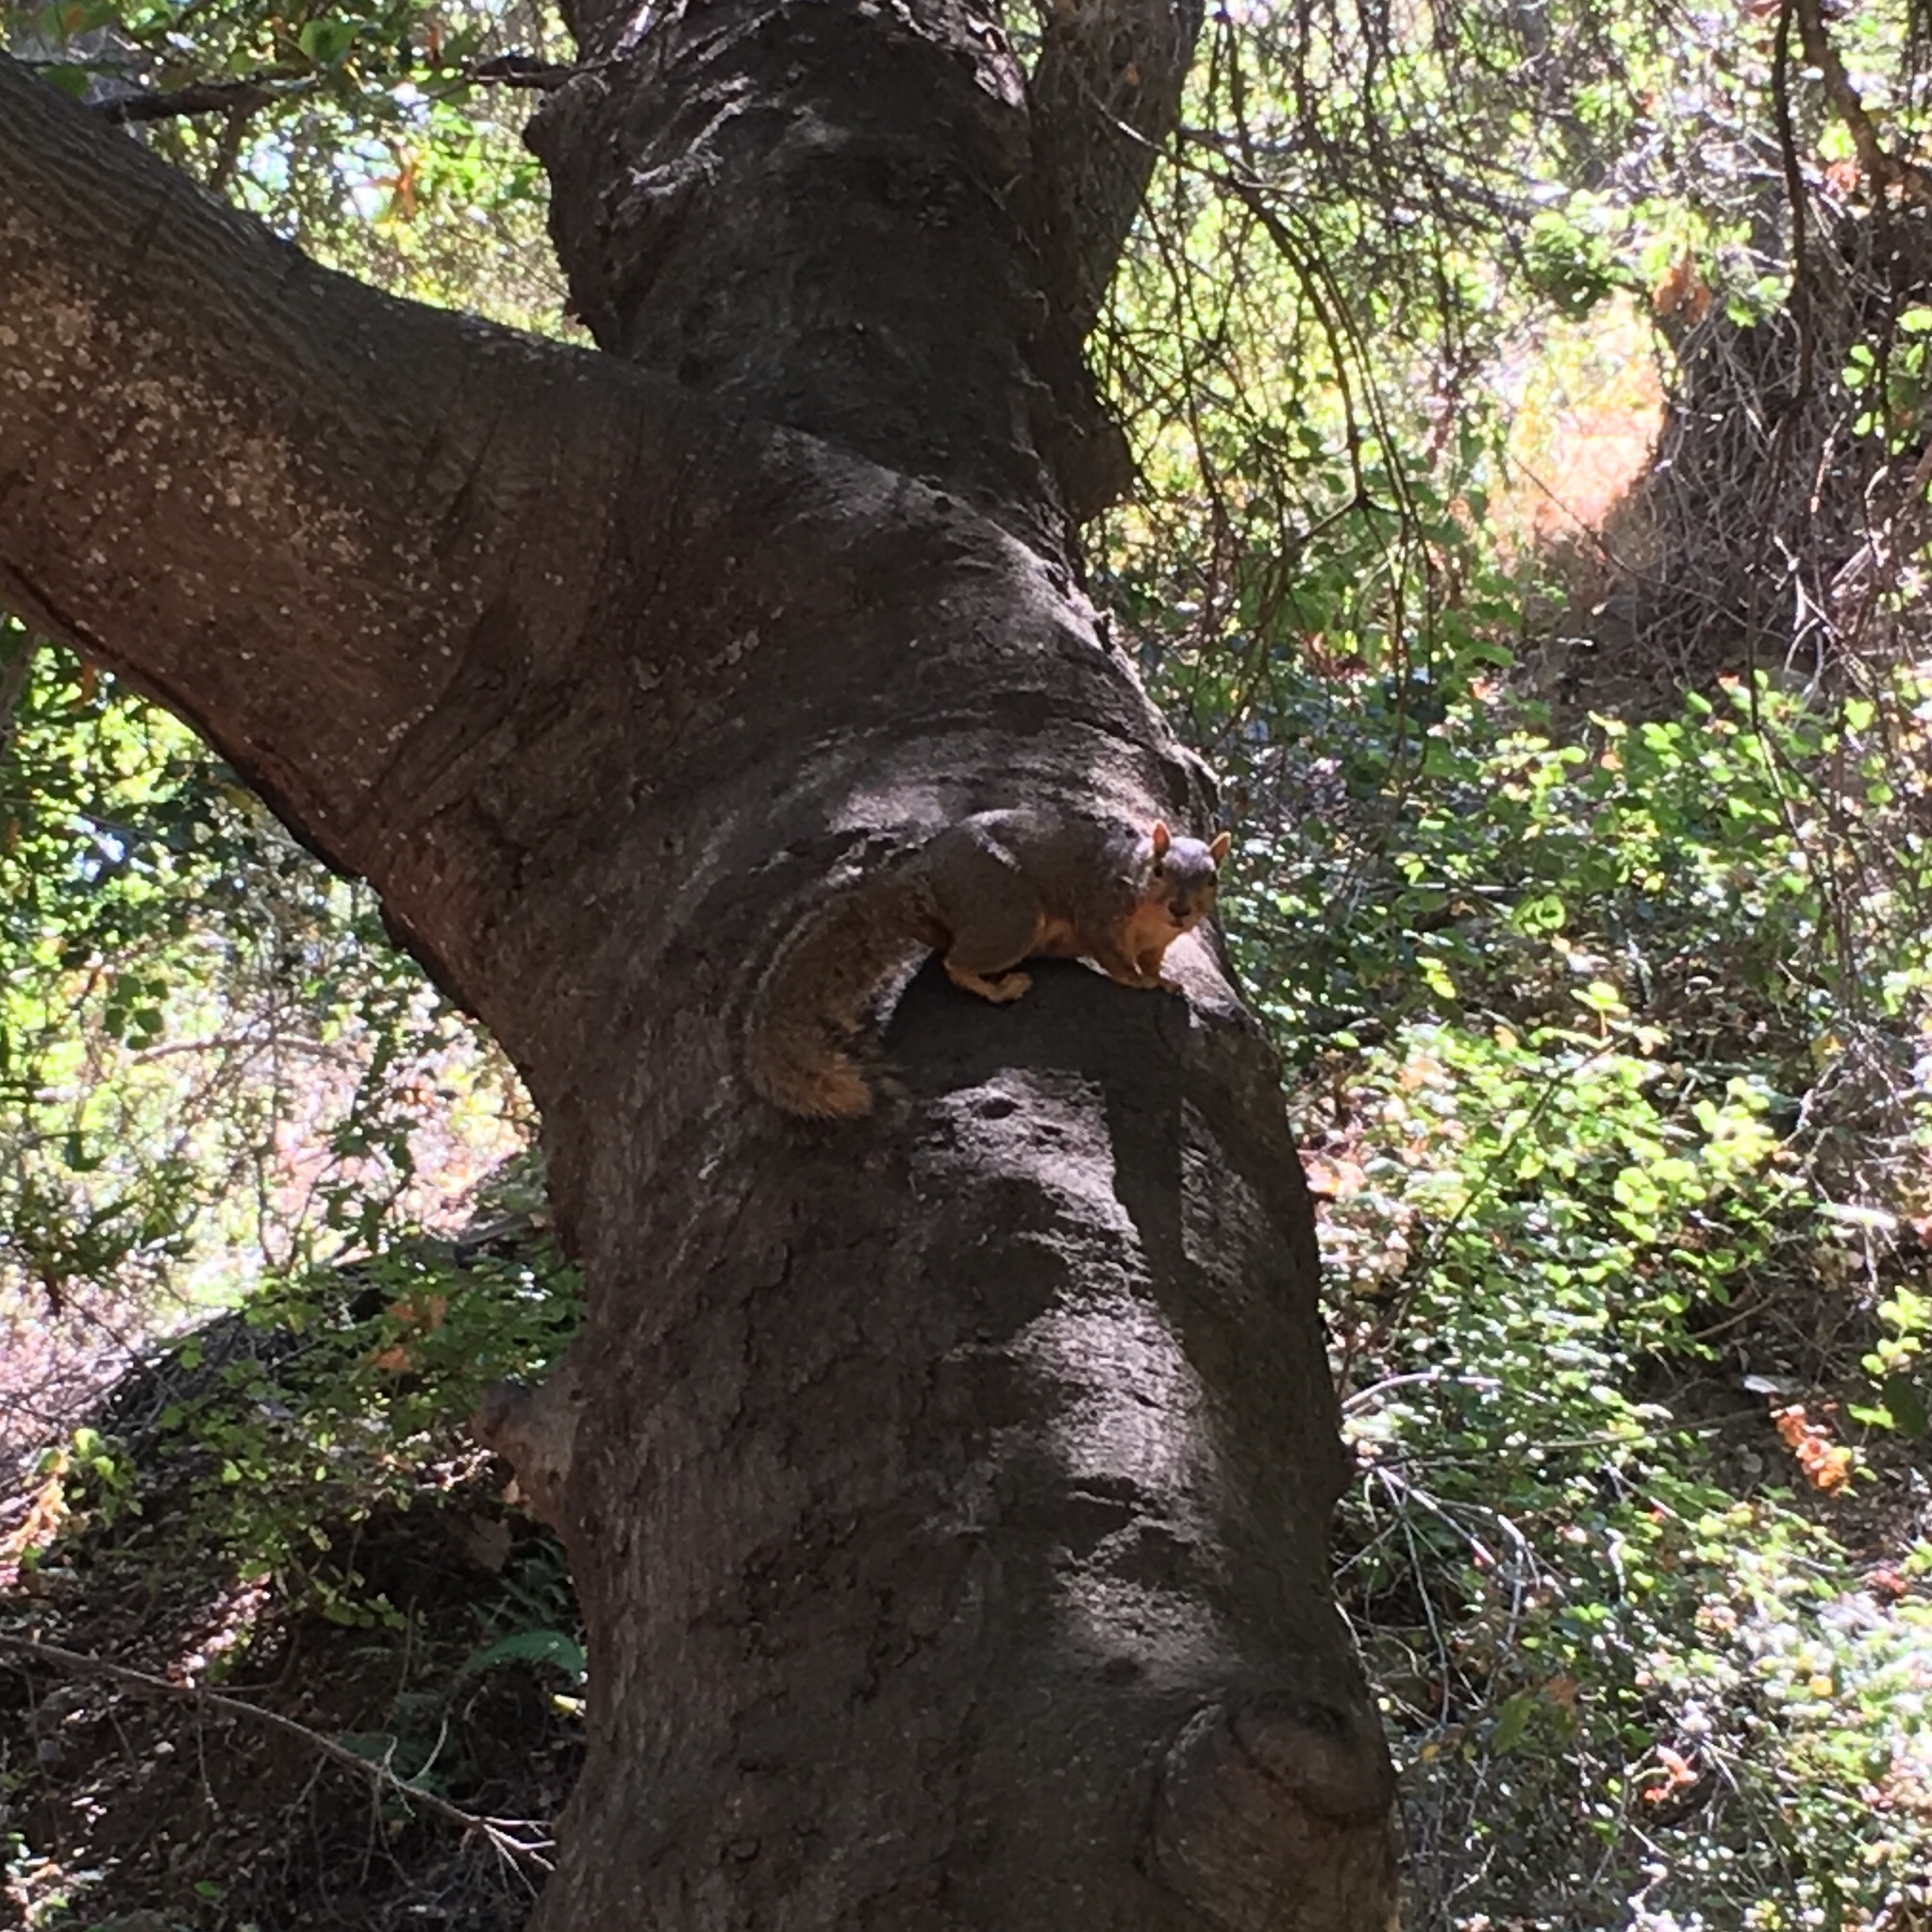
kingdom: Animalia
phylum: Chordata
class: Mammalia
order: Rodentia
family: Sciuridae
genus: Sciurus
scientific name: Sciurus niger
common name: Fox squirrel
